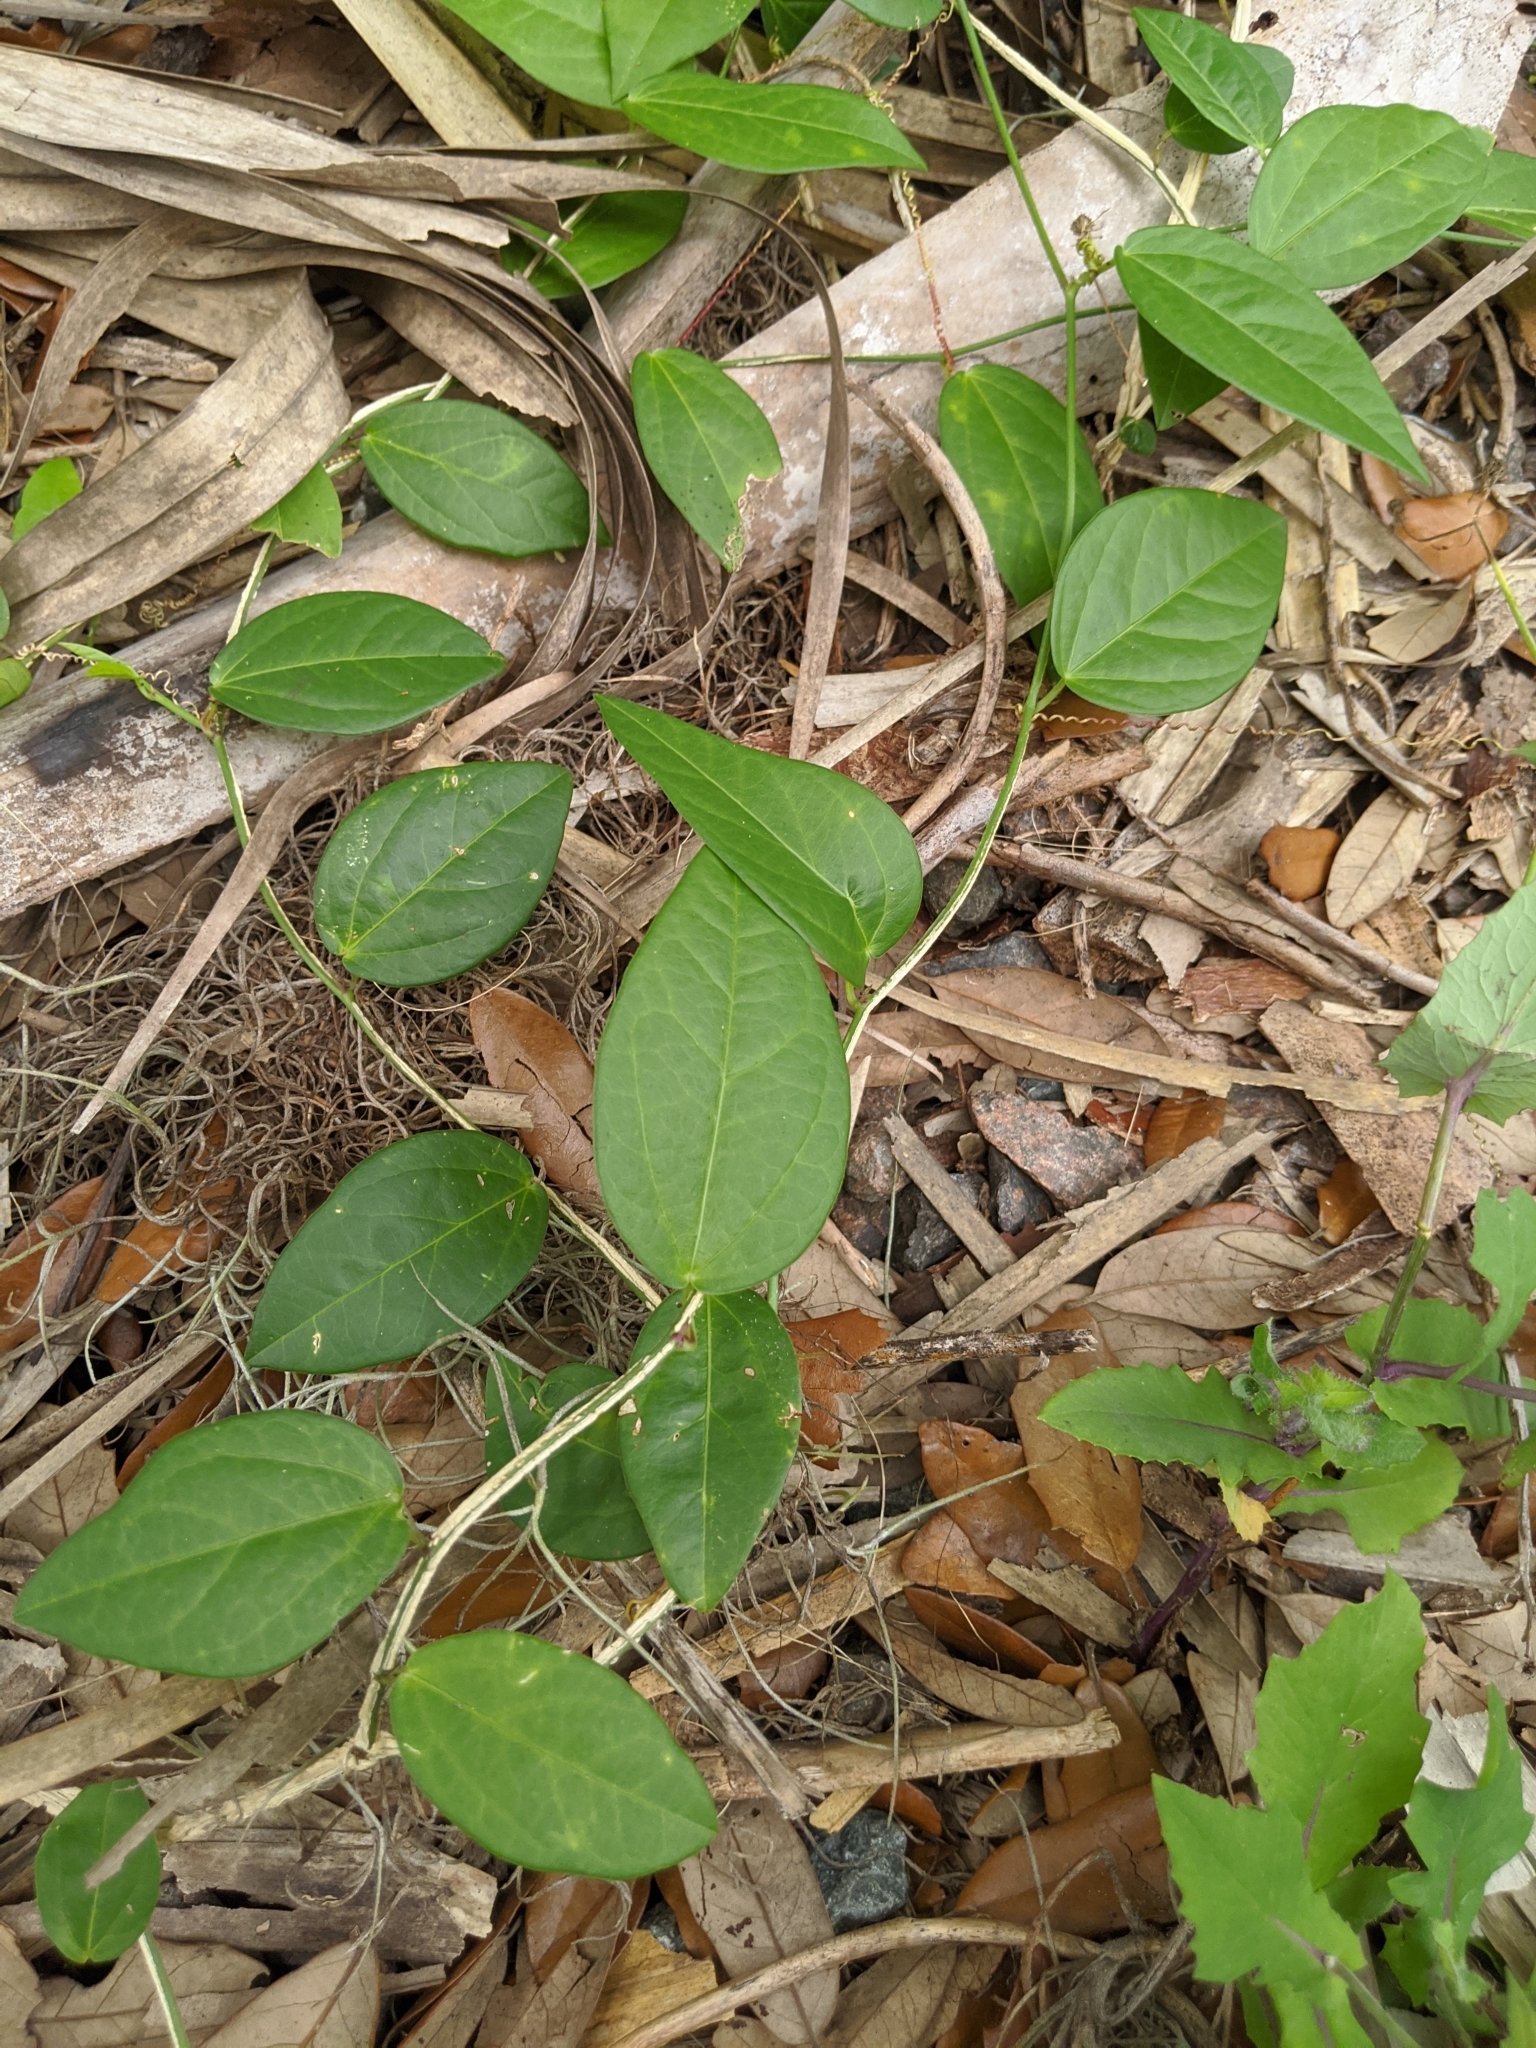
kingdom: Plantae
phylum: Tracheophyta
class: Magnoliopsida
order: Malpighiales
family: Passifloraceae
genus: Passiflora
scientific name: Passiflora pallida
